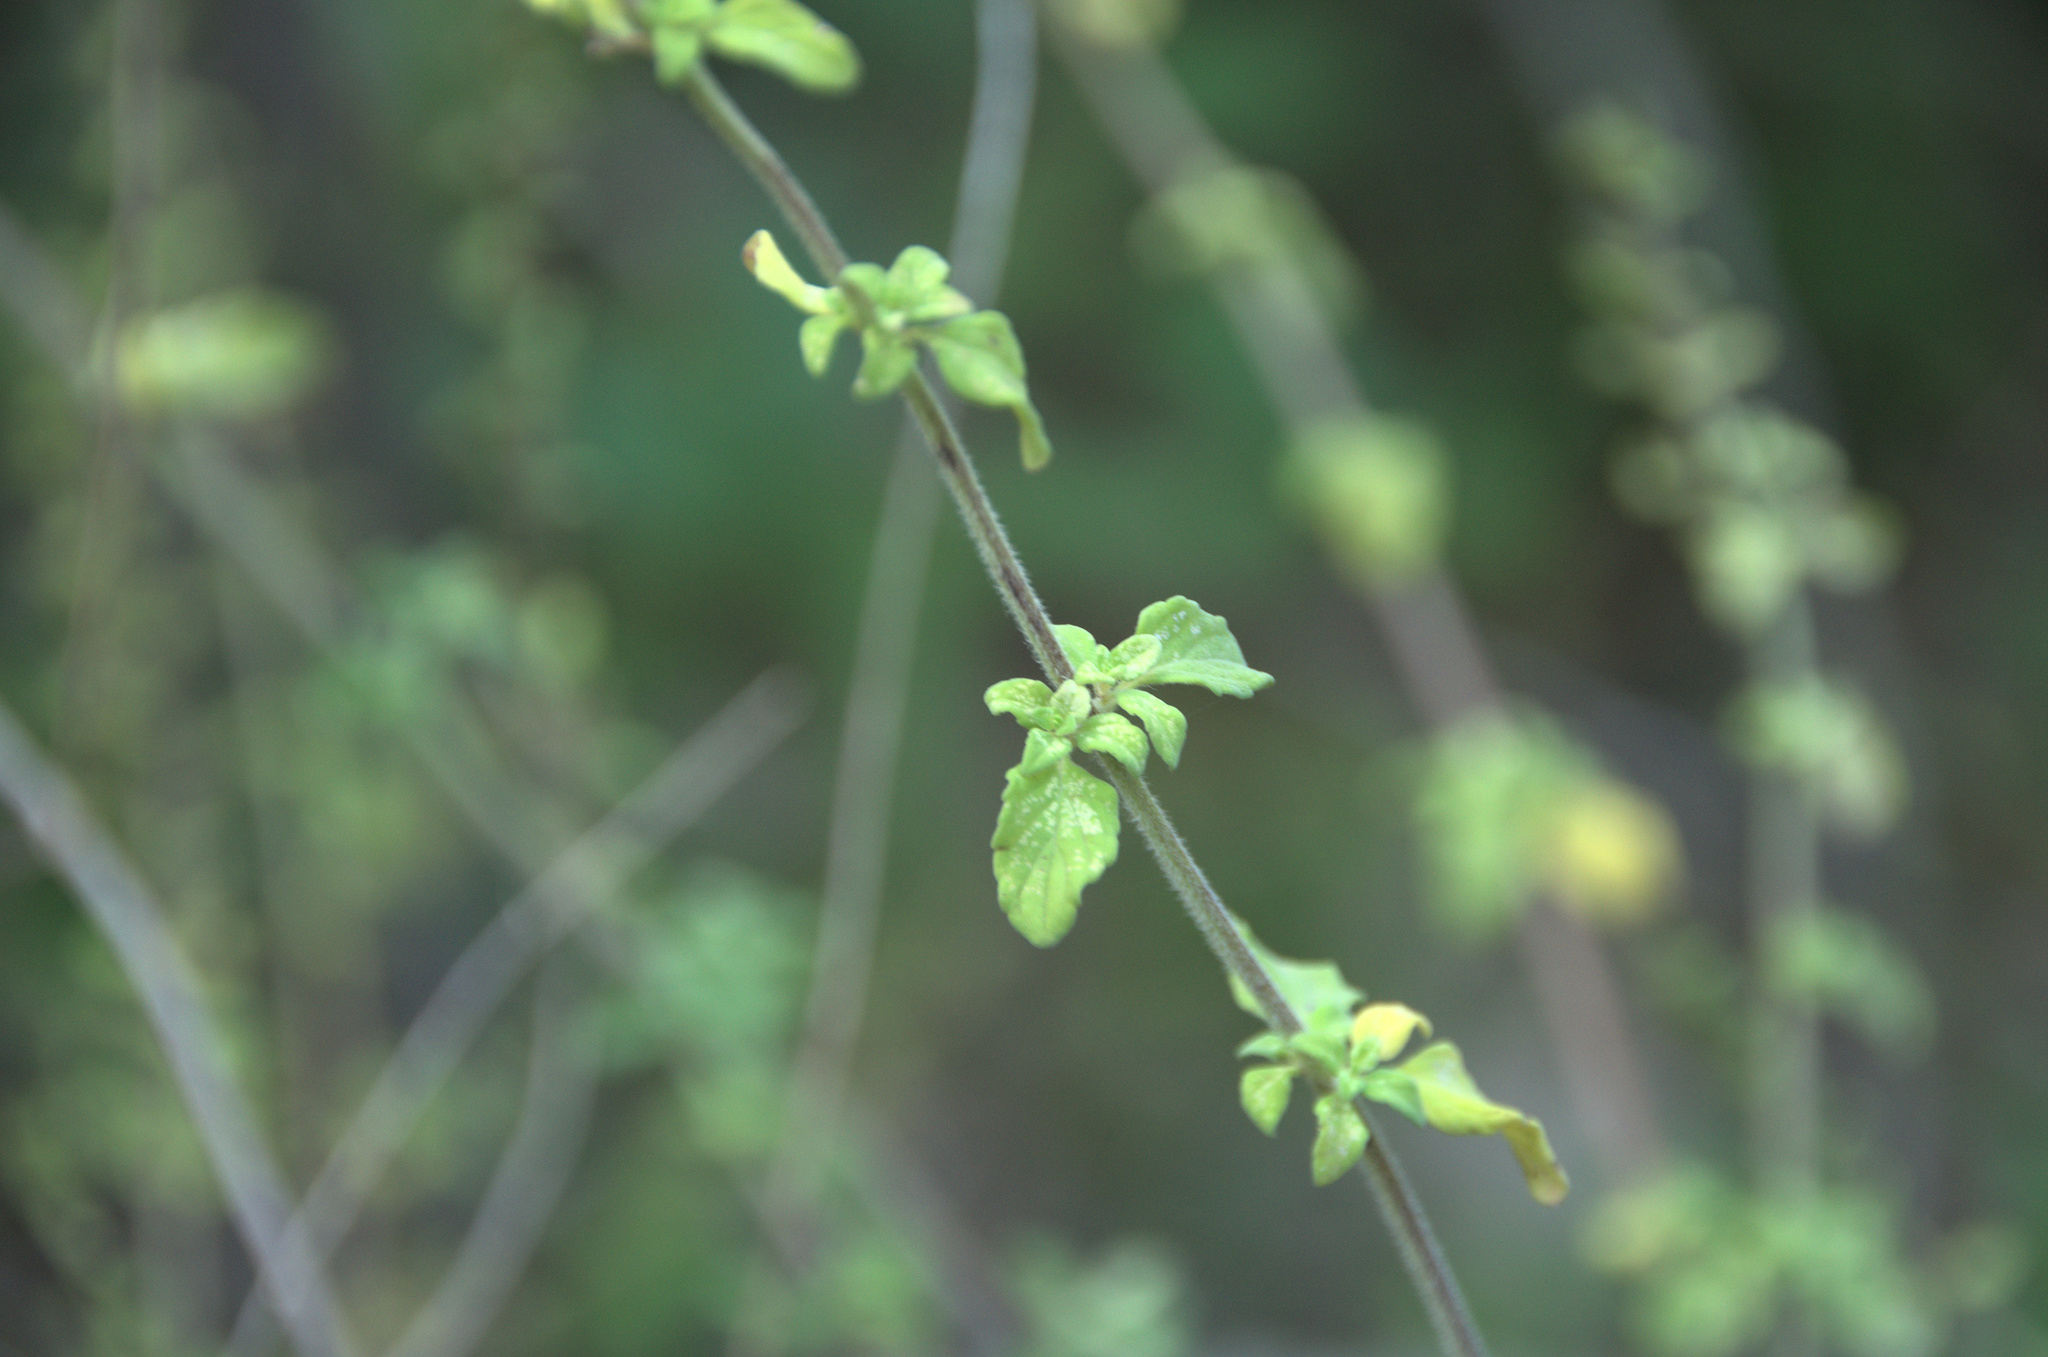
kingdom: Plantae
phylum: Tracheophyta
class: Magnoliopsida
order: Lamiales
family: Lamiaceae
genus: Clinopodium
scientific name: Clinopodium nepeta
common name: Lesser calamint
